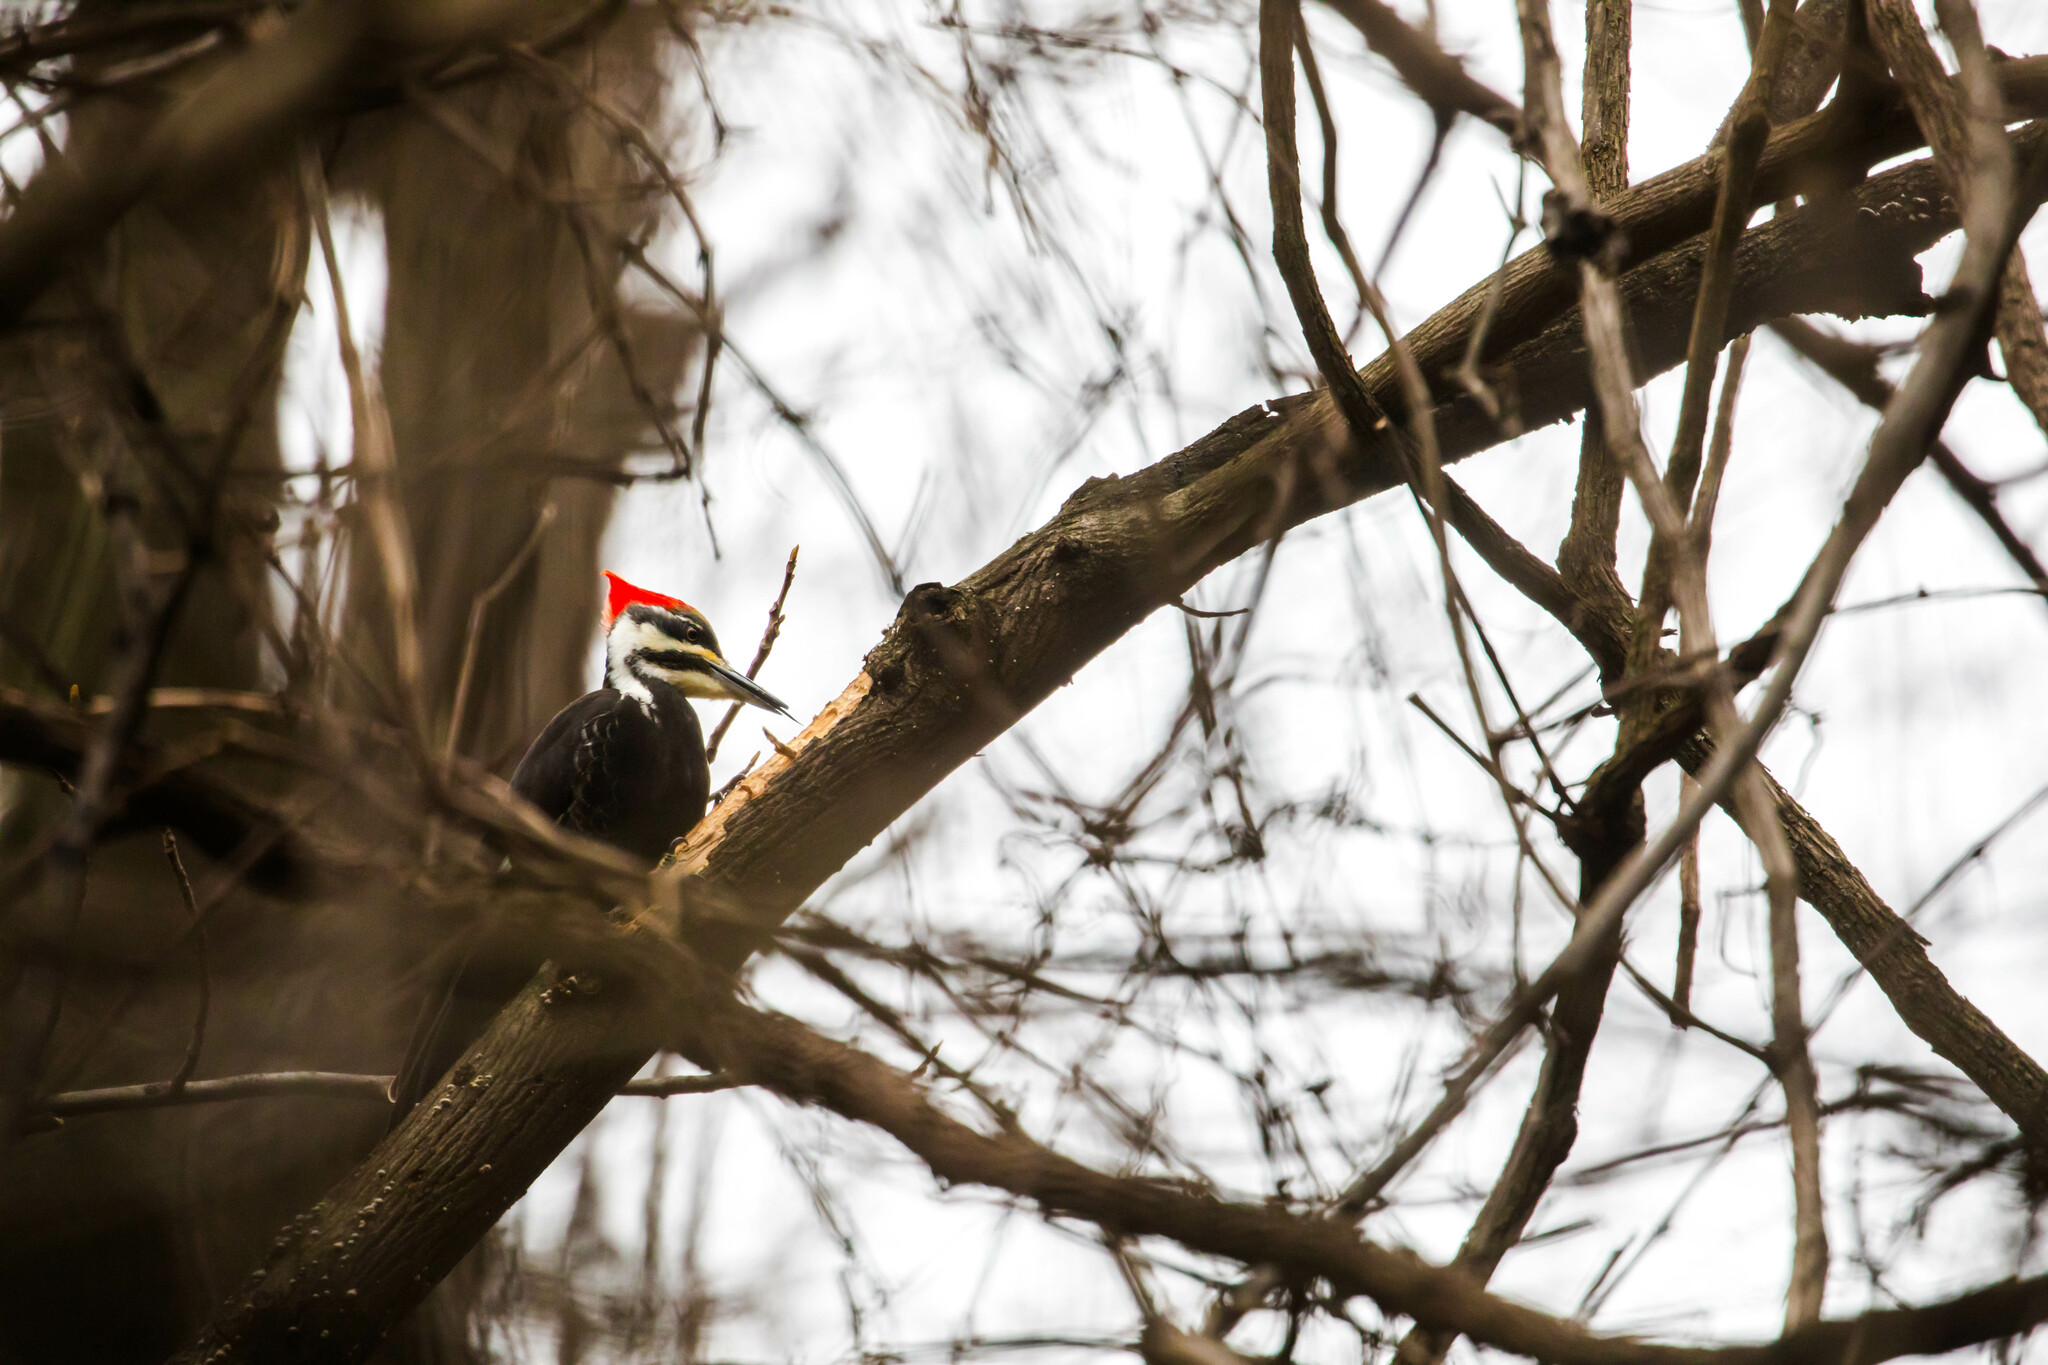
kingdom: Animalia
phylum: Chordata
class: Aves
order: Piciformes
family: Picidae
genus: Dryocopus
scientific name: Dryocopus pileatus
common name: Pileated woodpecker
